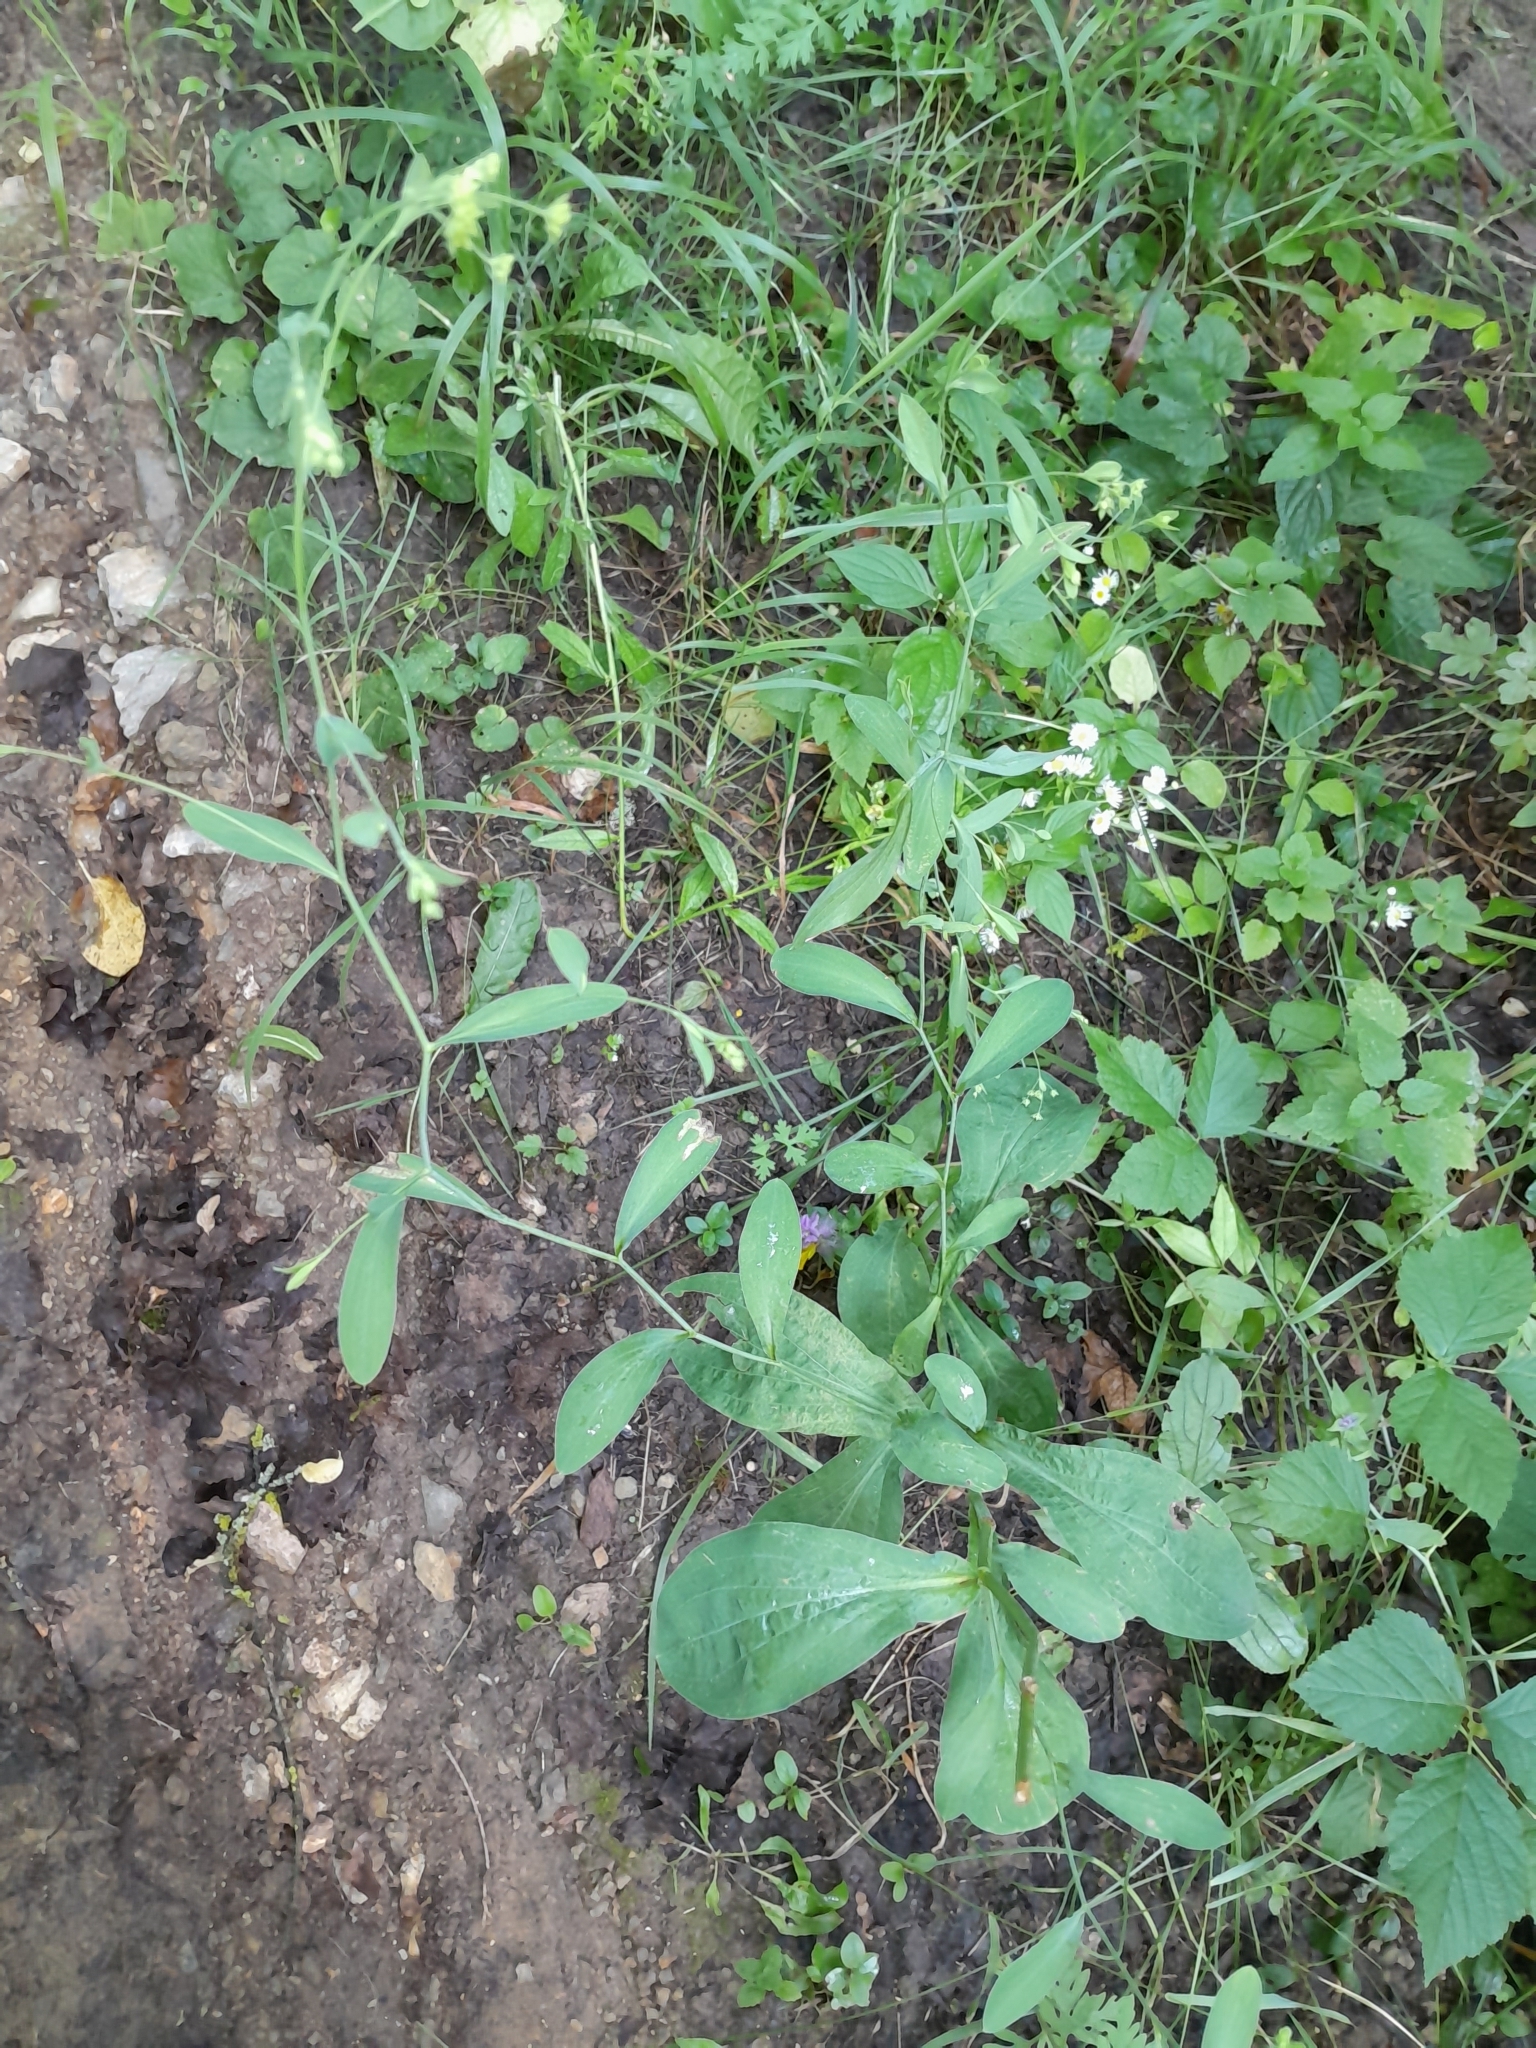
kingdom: Plantae
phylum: Tracheophyta
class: Magnoliopsida
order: Apiales
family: Apiaceae
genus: Bupleurum
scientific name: Bupleurum falcatum
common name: Sickle-leaved hare's-ear
